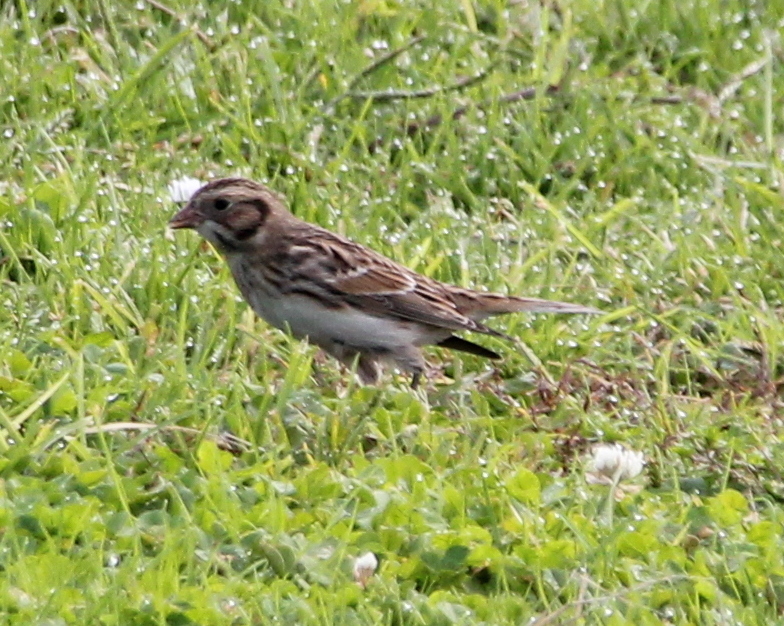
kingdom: Animalia
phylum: Chordata
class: Aves
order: Passeriformes
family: Motacillidae
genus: Anthus
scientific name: Anthus rubescens
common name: Buff-bellied pipit
